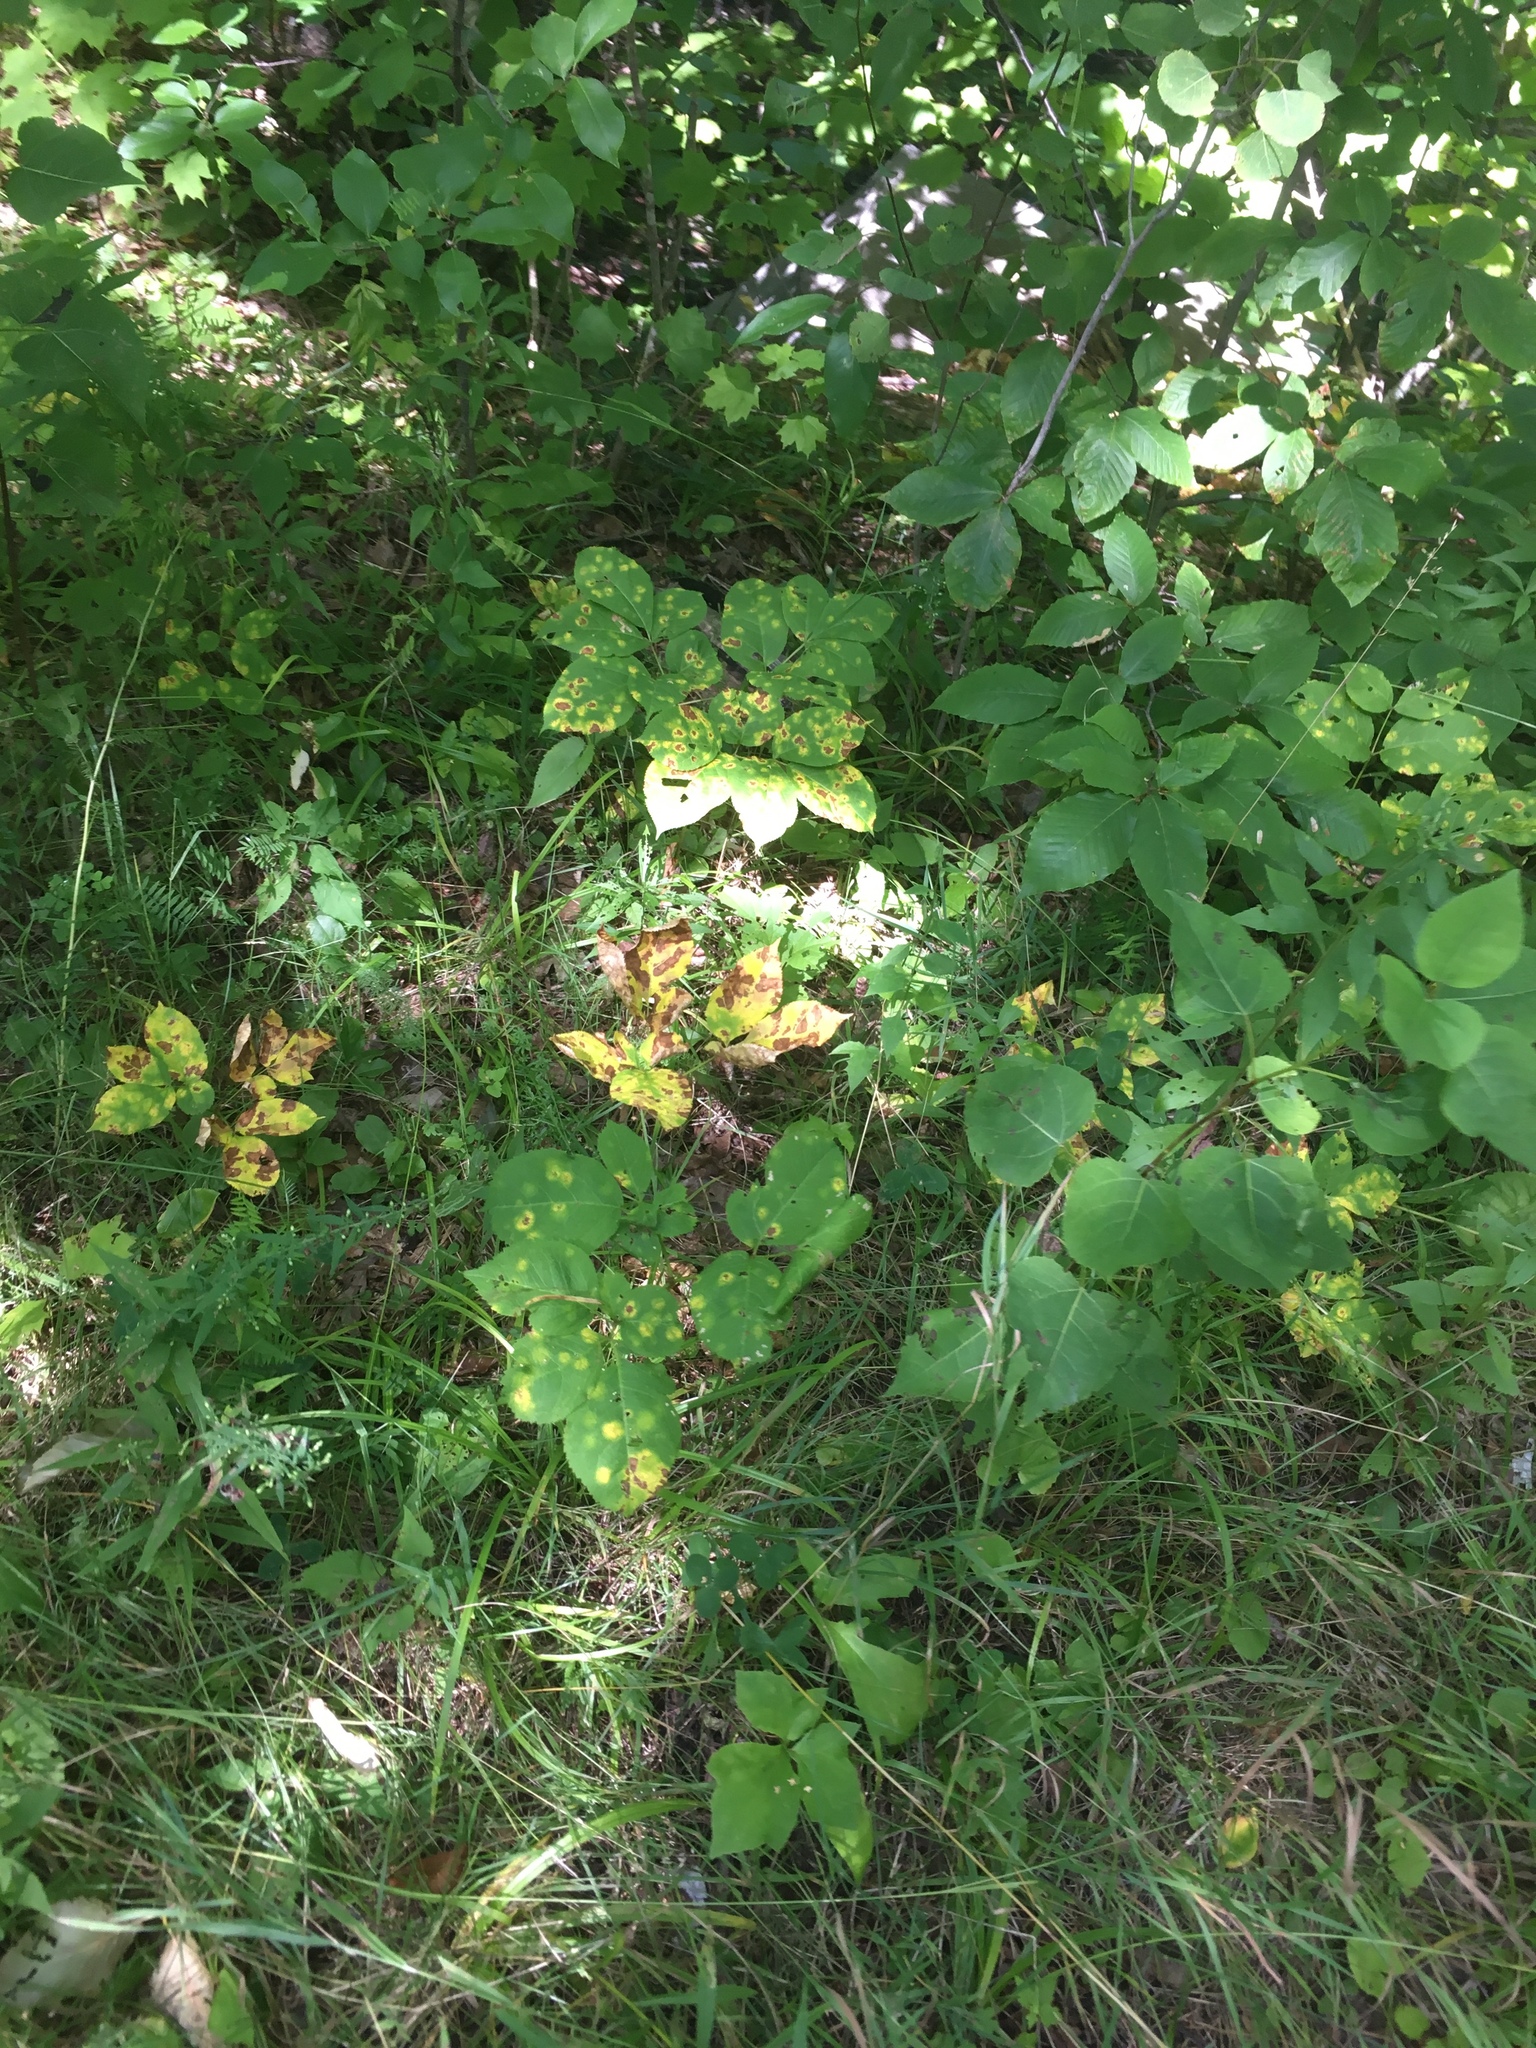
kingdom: Plantae
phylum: Tracheophyta
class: Magnoliopsida
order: Apiales
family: Araliaceae
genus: Aralia
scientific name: Aralia nudicaulis
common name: Wild sarsaparilla
